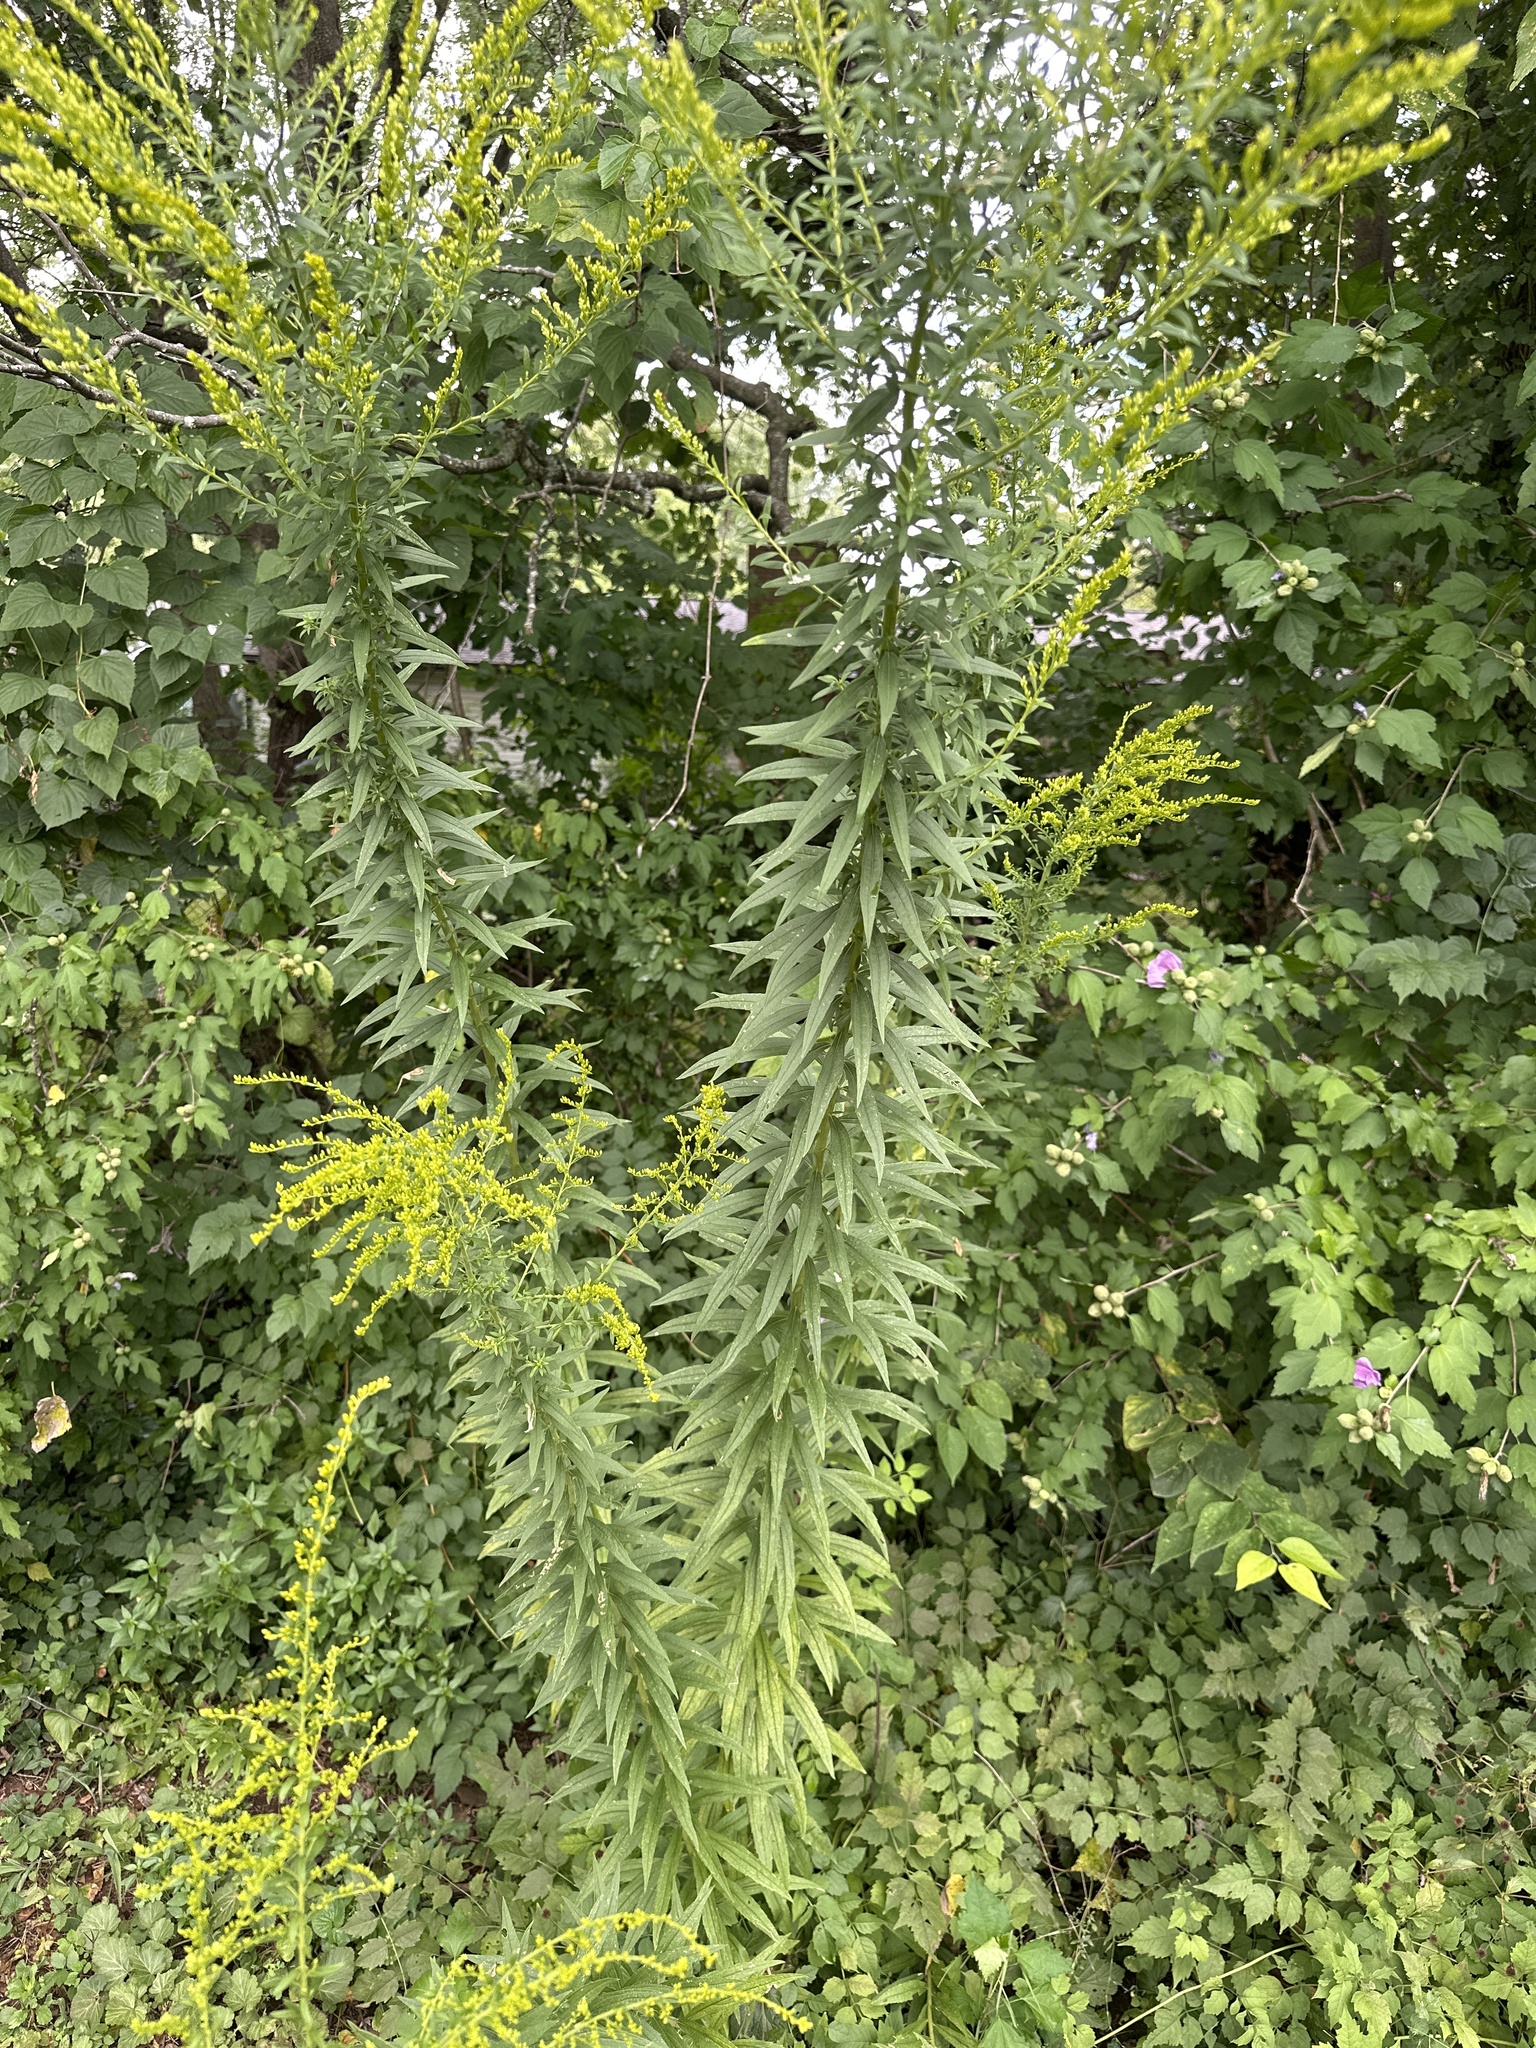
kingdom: Plantae
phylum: Tracheophyta
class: Magnoliopsida
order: Asterales
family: Asteraceae
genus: Solidago
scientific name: Solidago altissima
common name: Late goldenrod
